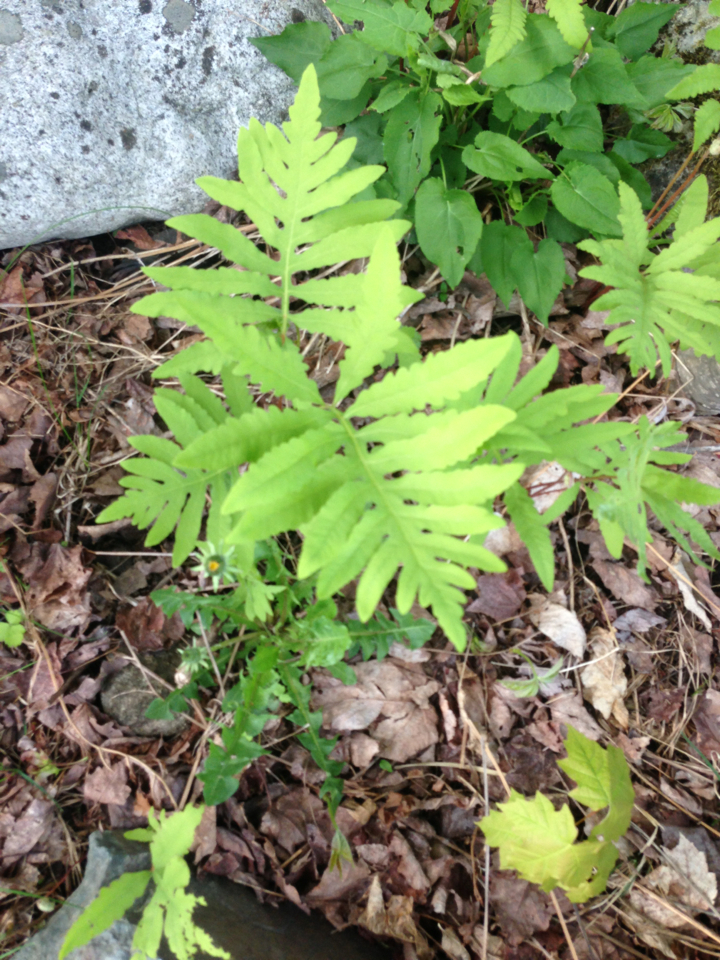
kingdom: Plantae
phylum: Tracheophyta
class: Polypodiopsida
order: Polypodiales
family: Onocleaceae
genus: Onoclea
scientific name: Onoclea sensibilis
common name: Sensitive fern
